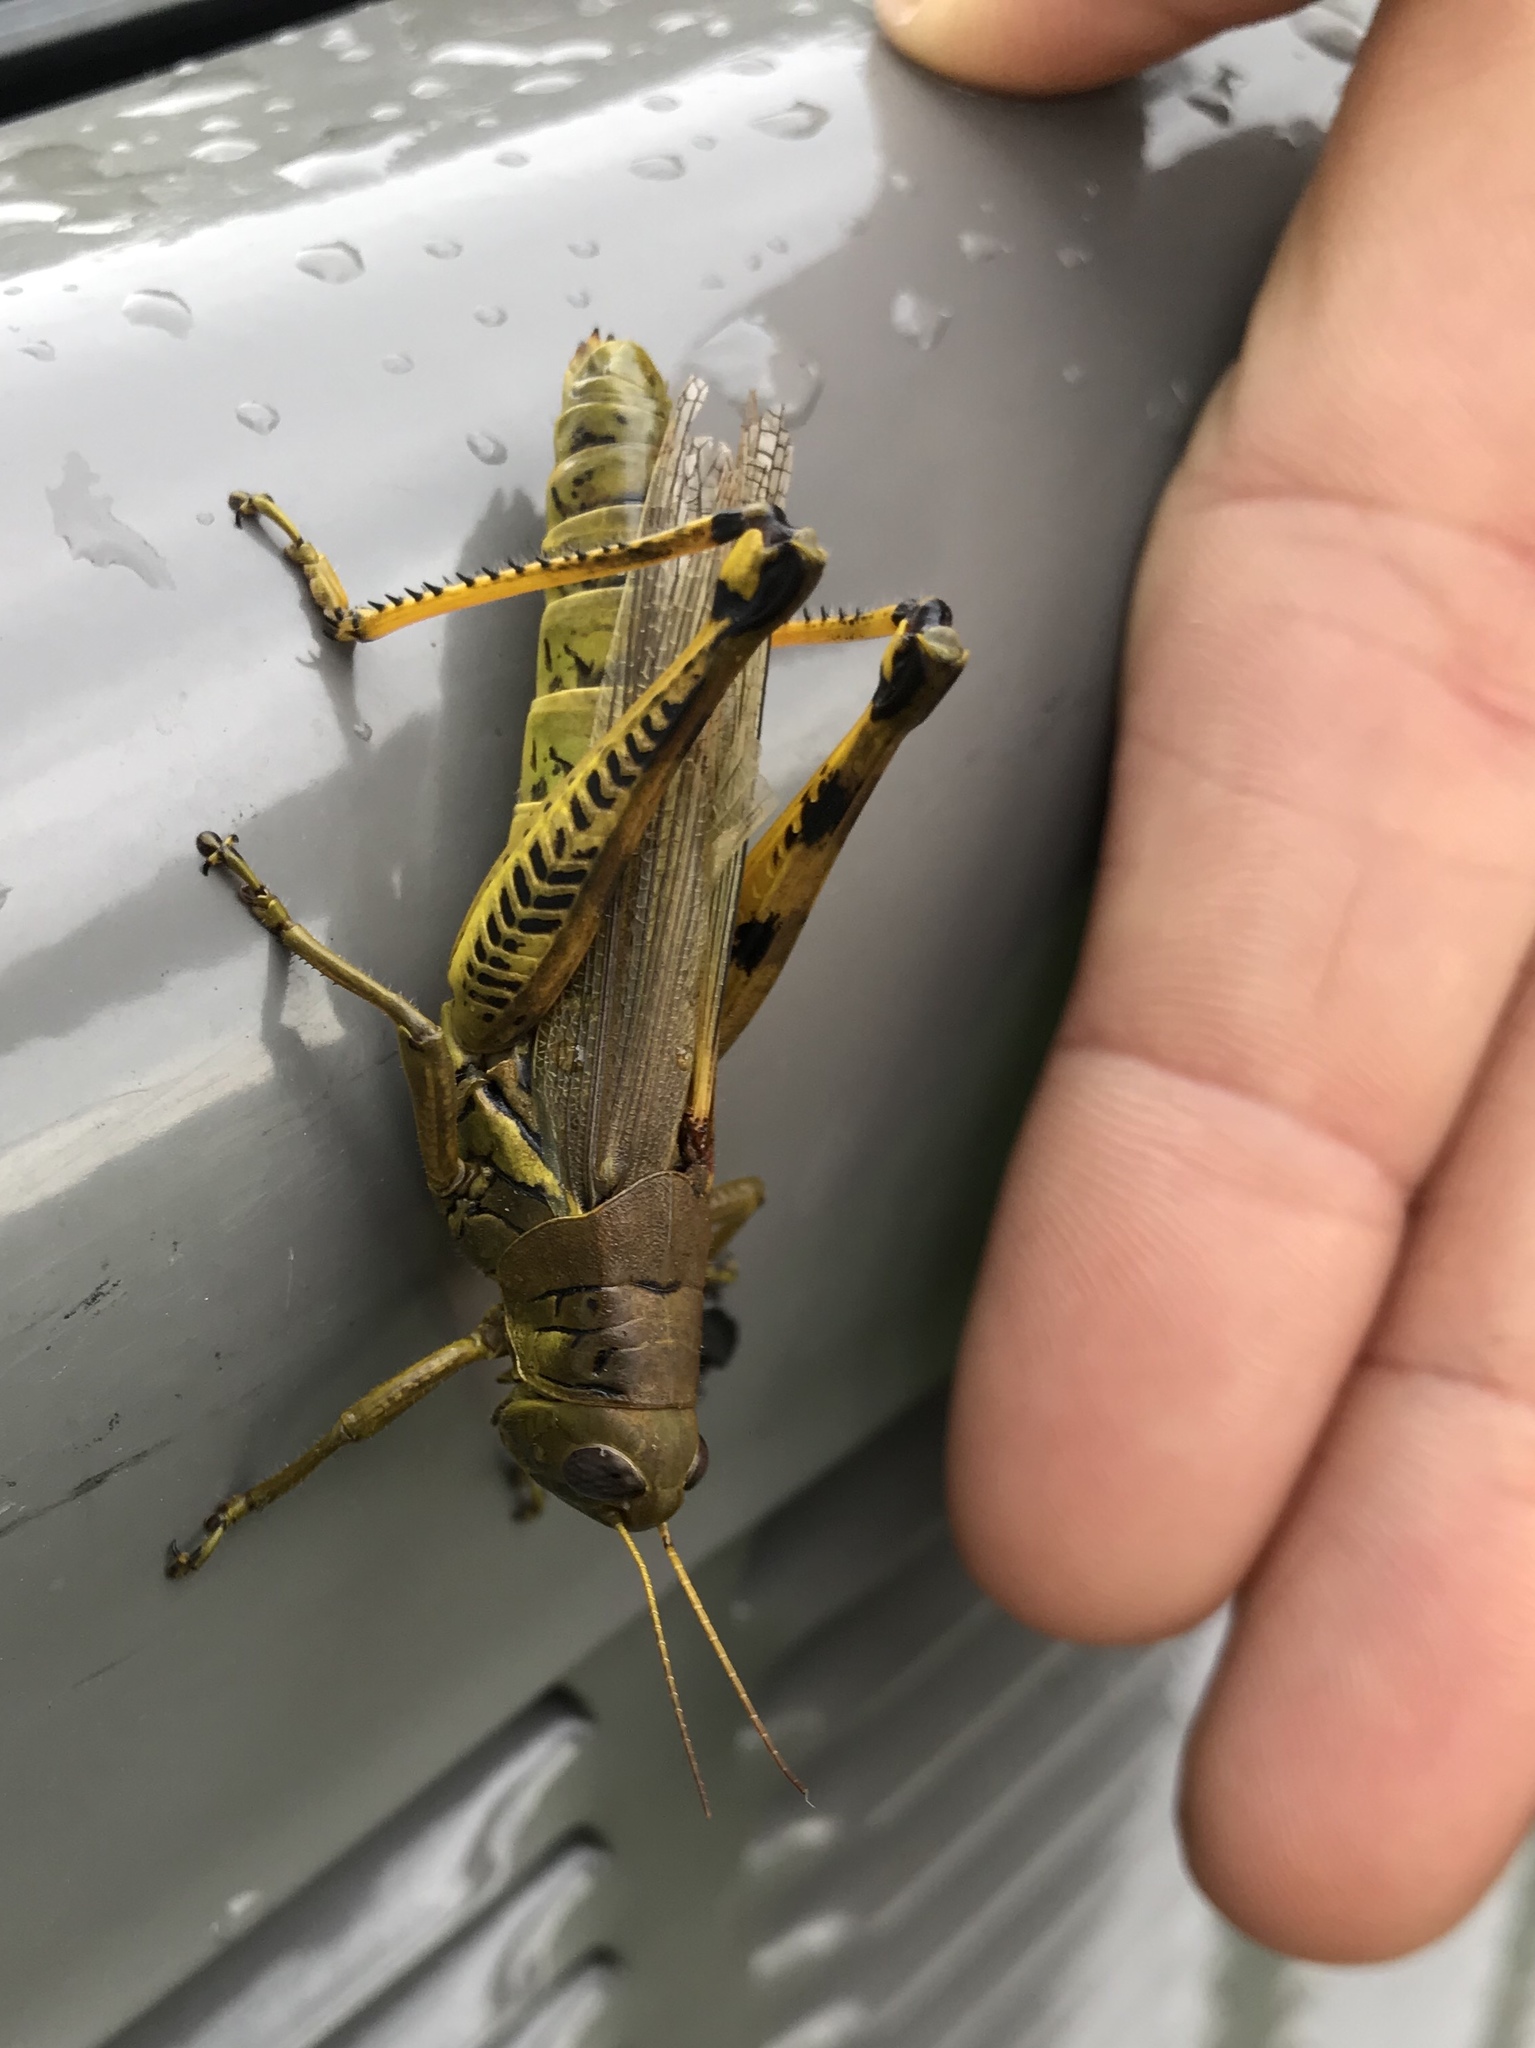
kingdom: Animalia
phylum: Arthropoda
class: Insecta
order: Orthoptera
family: Acrididae
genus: Melanoplus
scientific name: Melanoplus differentialis
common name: Differential grasshopper
